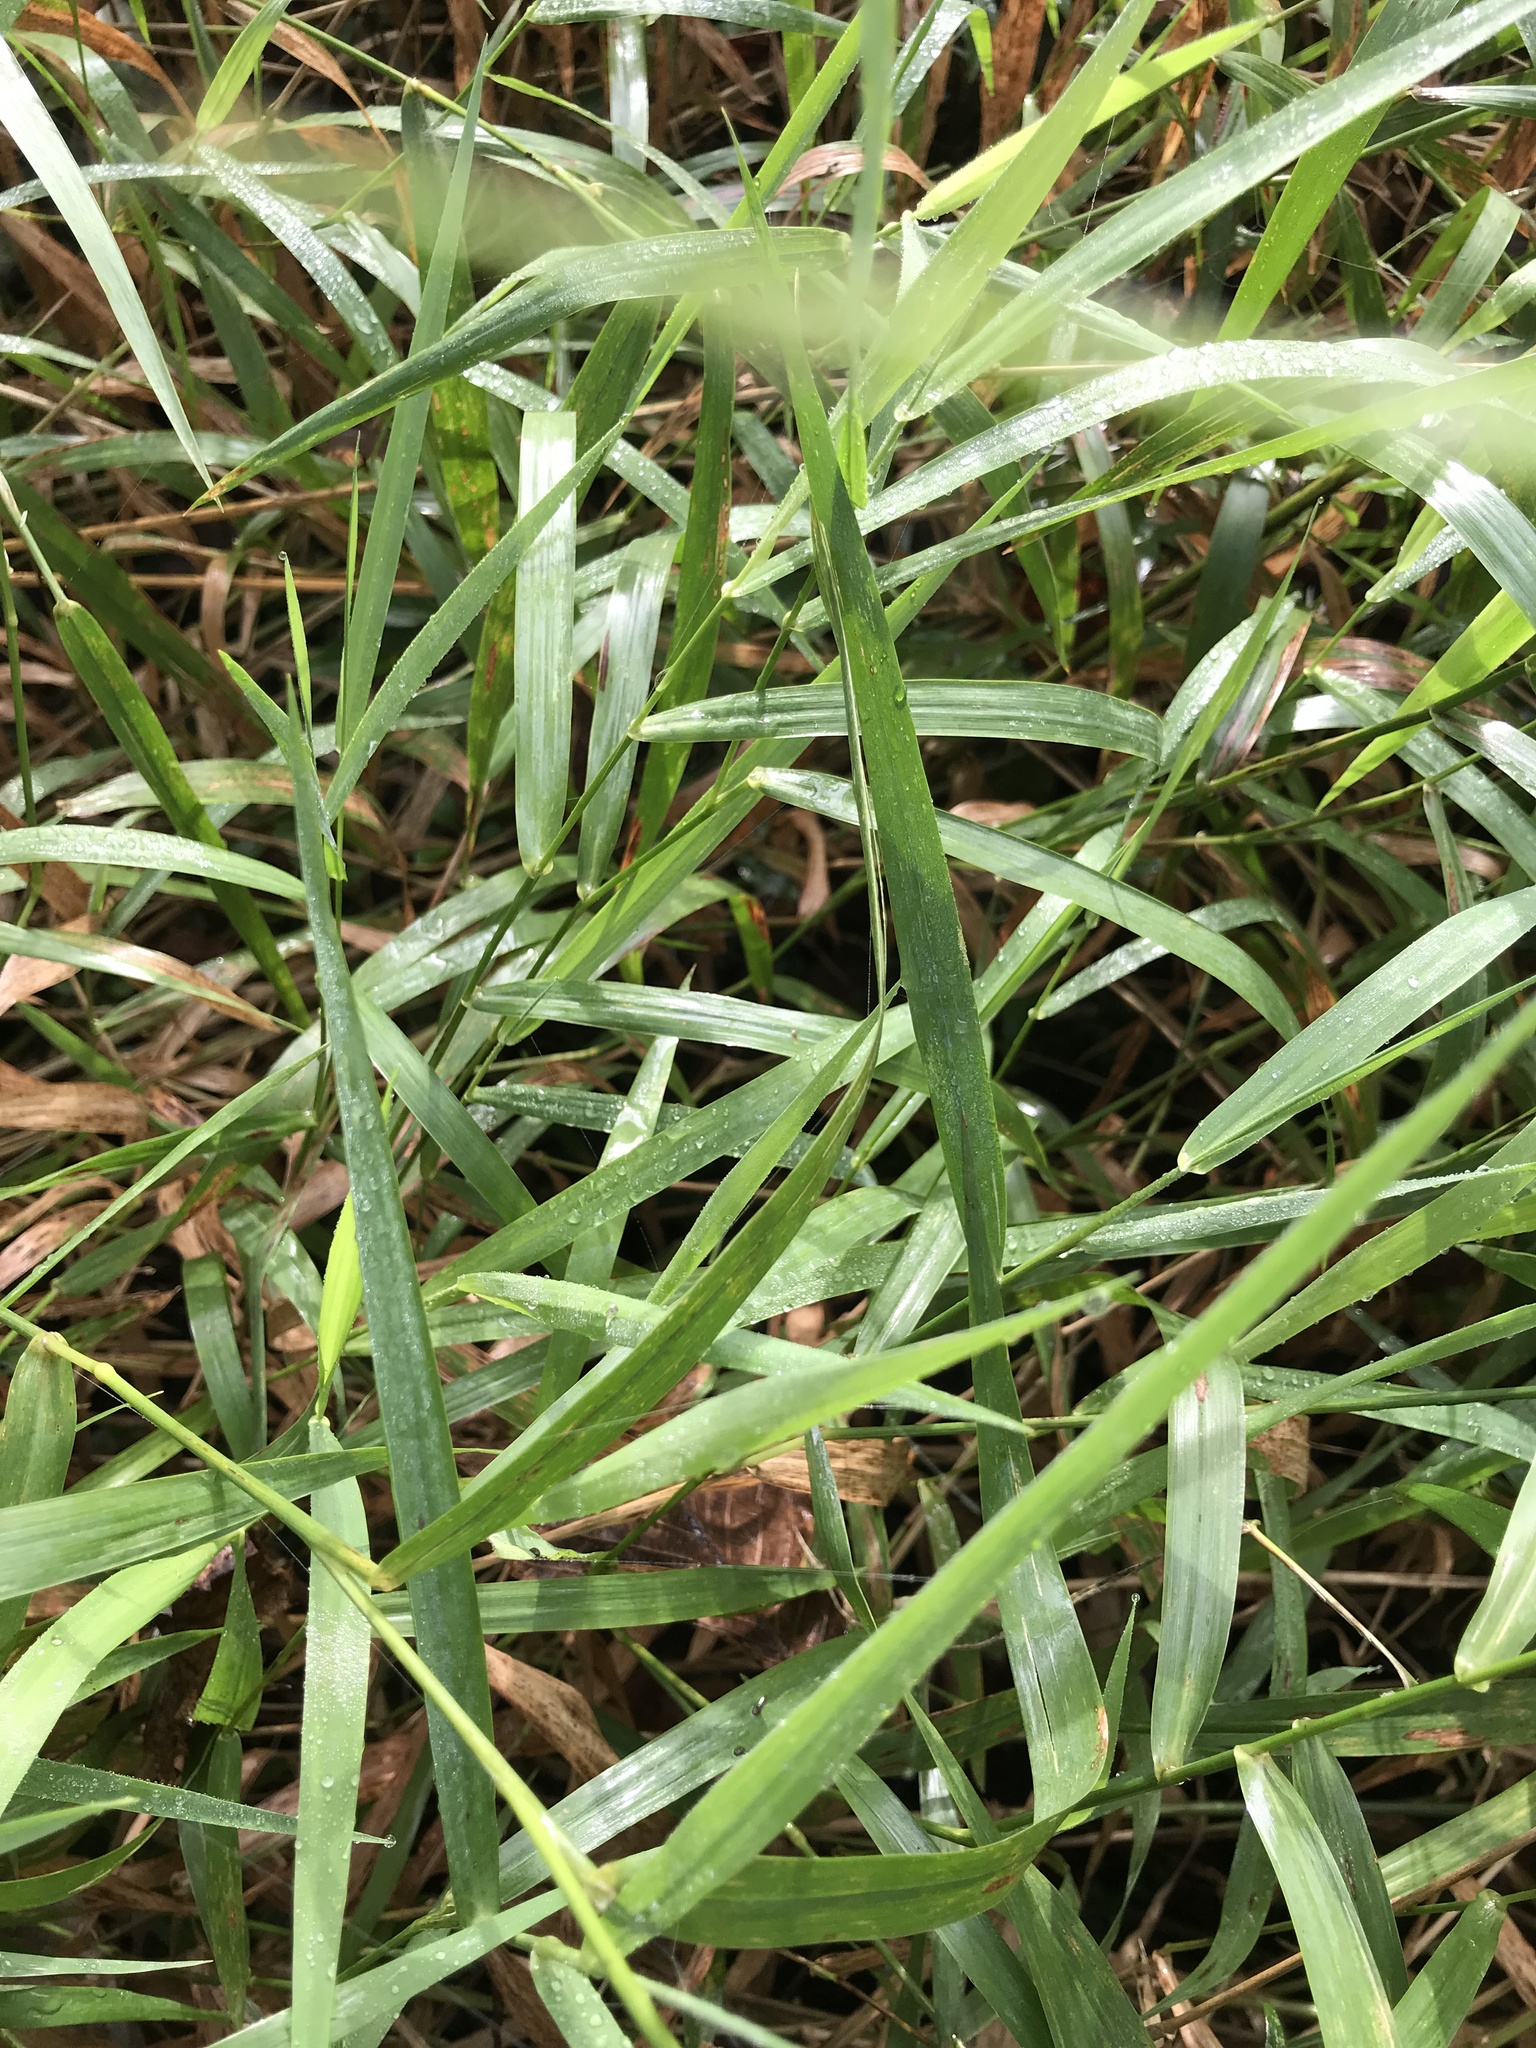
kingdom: Plantae
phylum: Tracheophyta
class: Liliopsida
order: Poales
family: Poaceae
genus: Phalaris
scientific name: Phalaris arundinacea
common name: Reed canary-grass
